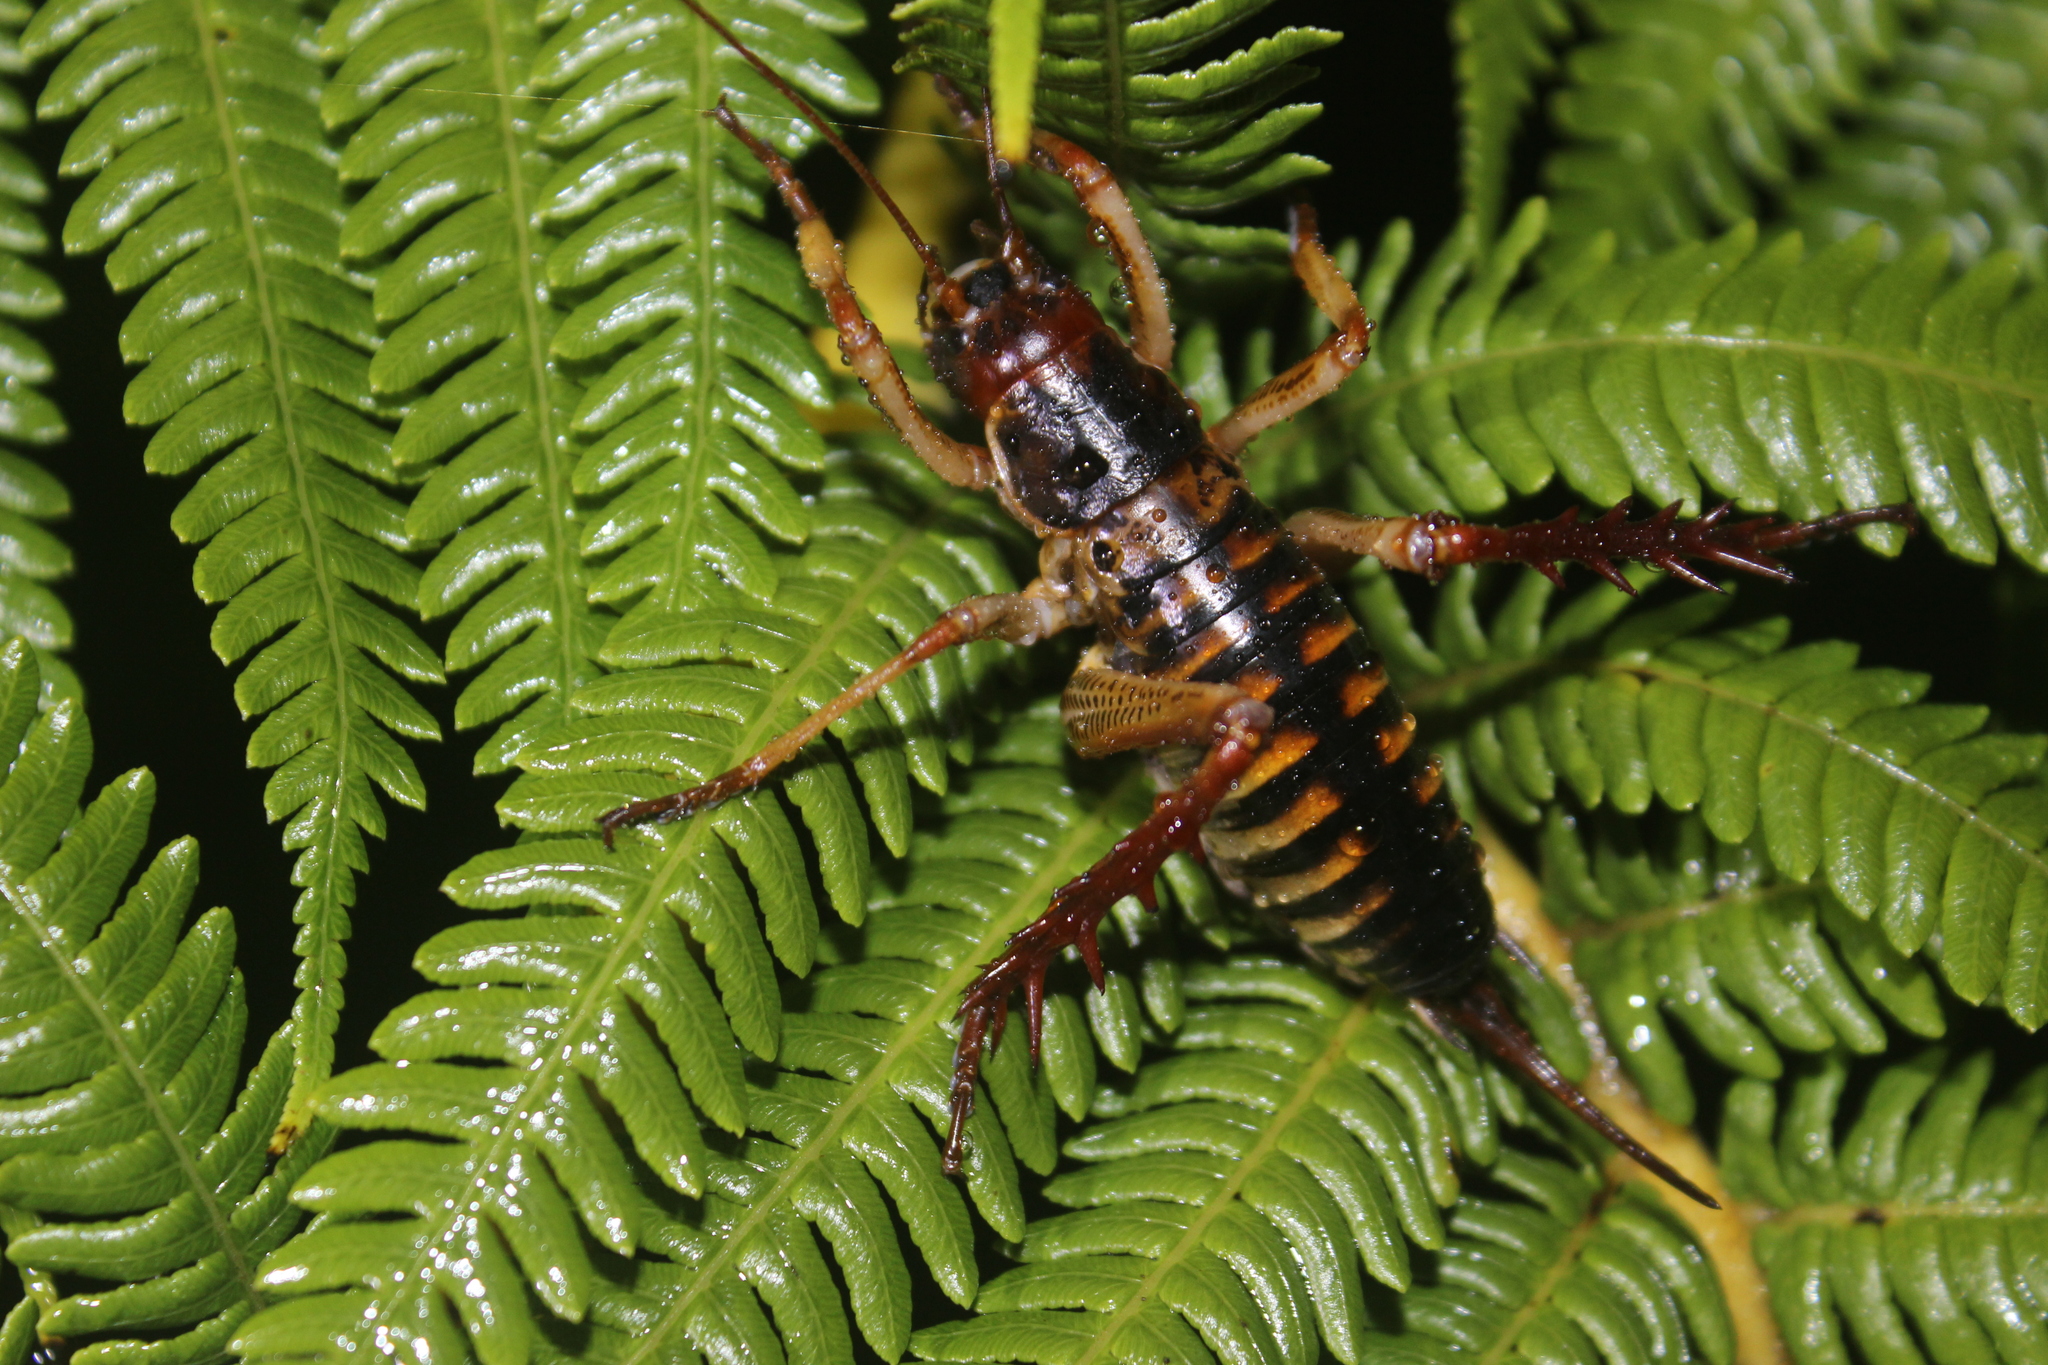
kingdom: Animalia
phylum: Arthropoda
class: Insecta
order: Orthoptera
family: Anostostomatidae
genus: Hemideina
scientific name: Hemideina crassidens
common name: Wellington tree weta
